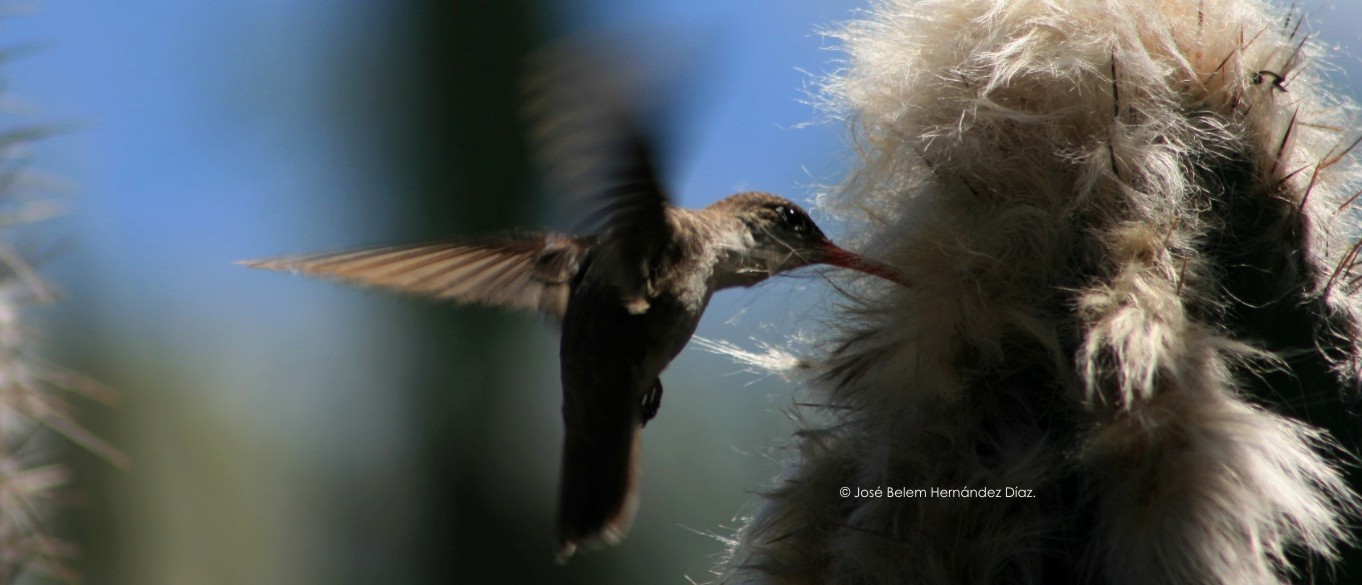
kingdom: Animalia
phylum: Chordata
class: Aves
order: Apodiformes
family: Trochilidae
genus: Leucolia
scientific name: Leucolia violiceps
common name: Violet-crowned hummingbird
